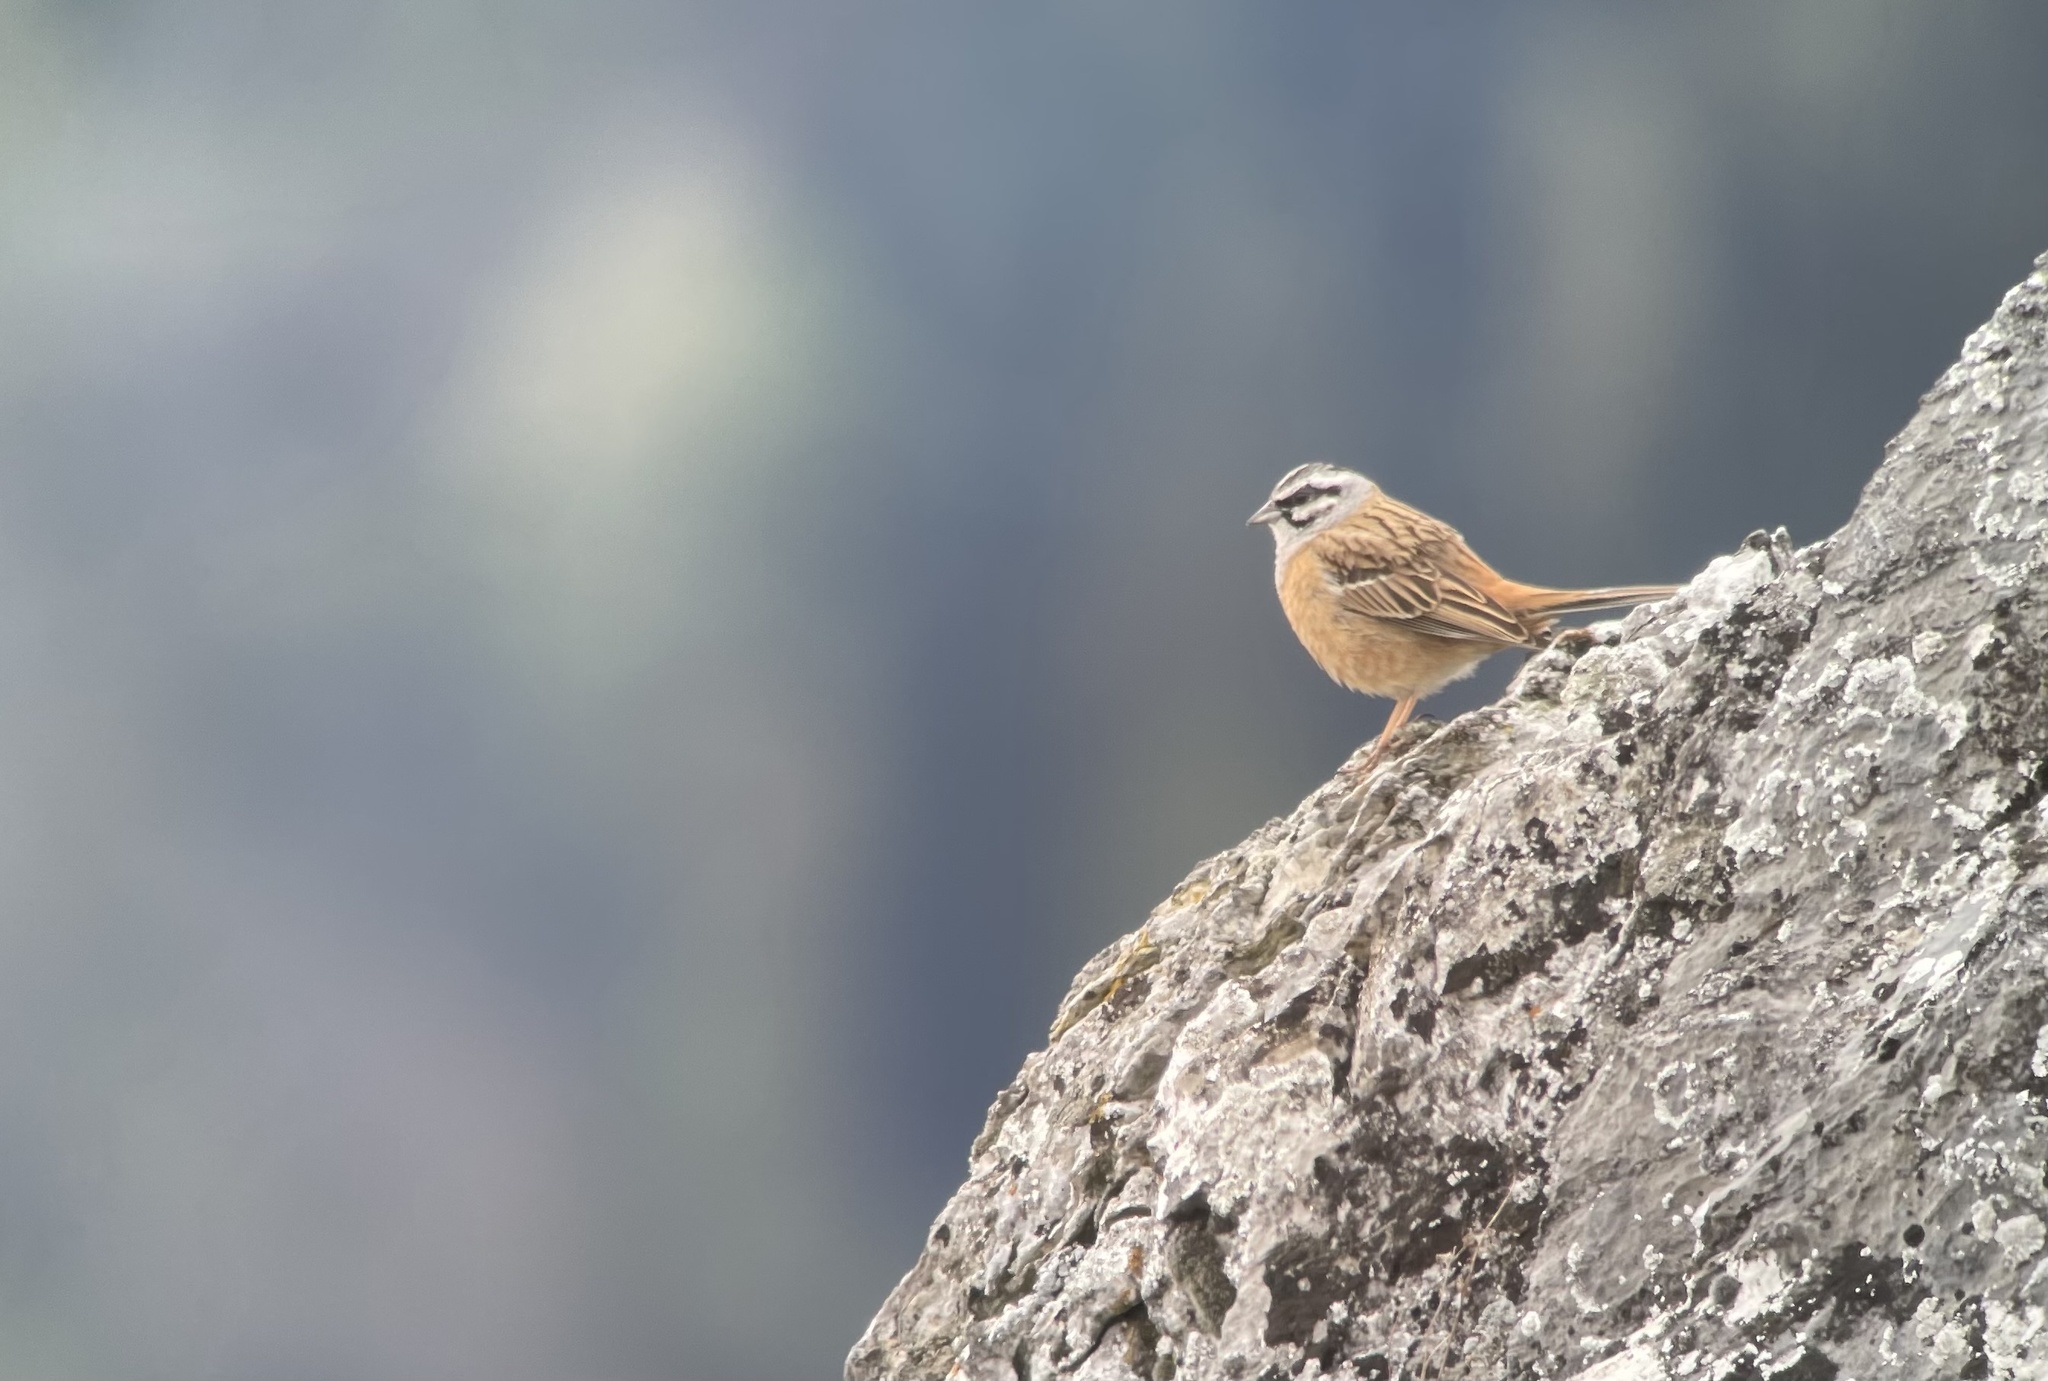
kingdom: Animalia
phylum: Chordata
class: Aves
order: Passeriformes
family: Emberizidae
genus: Emberiza
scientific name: Emberiza cia
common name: Rock bunting
